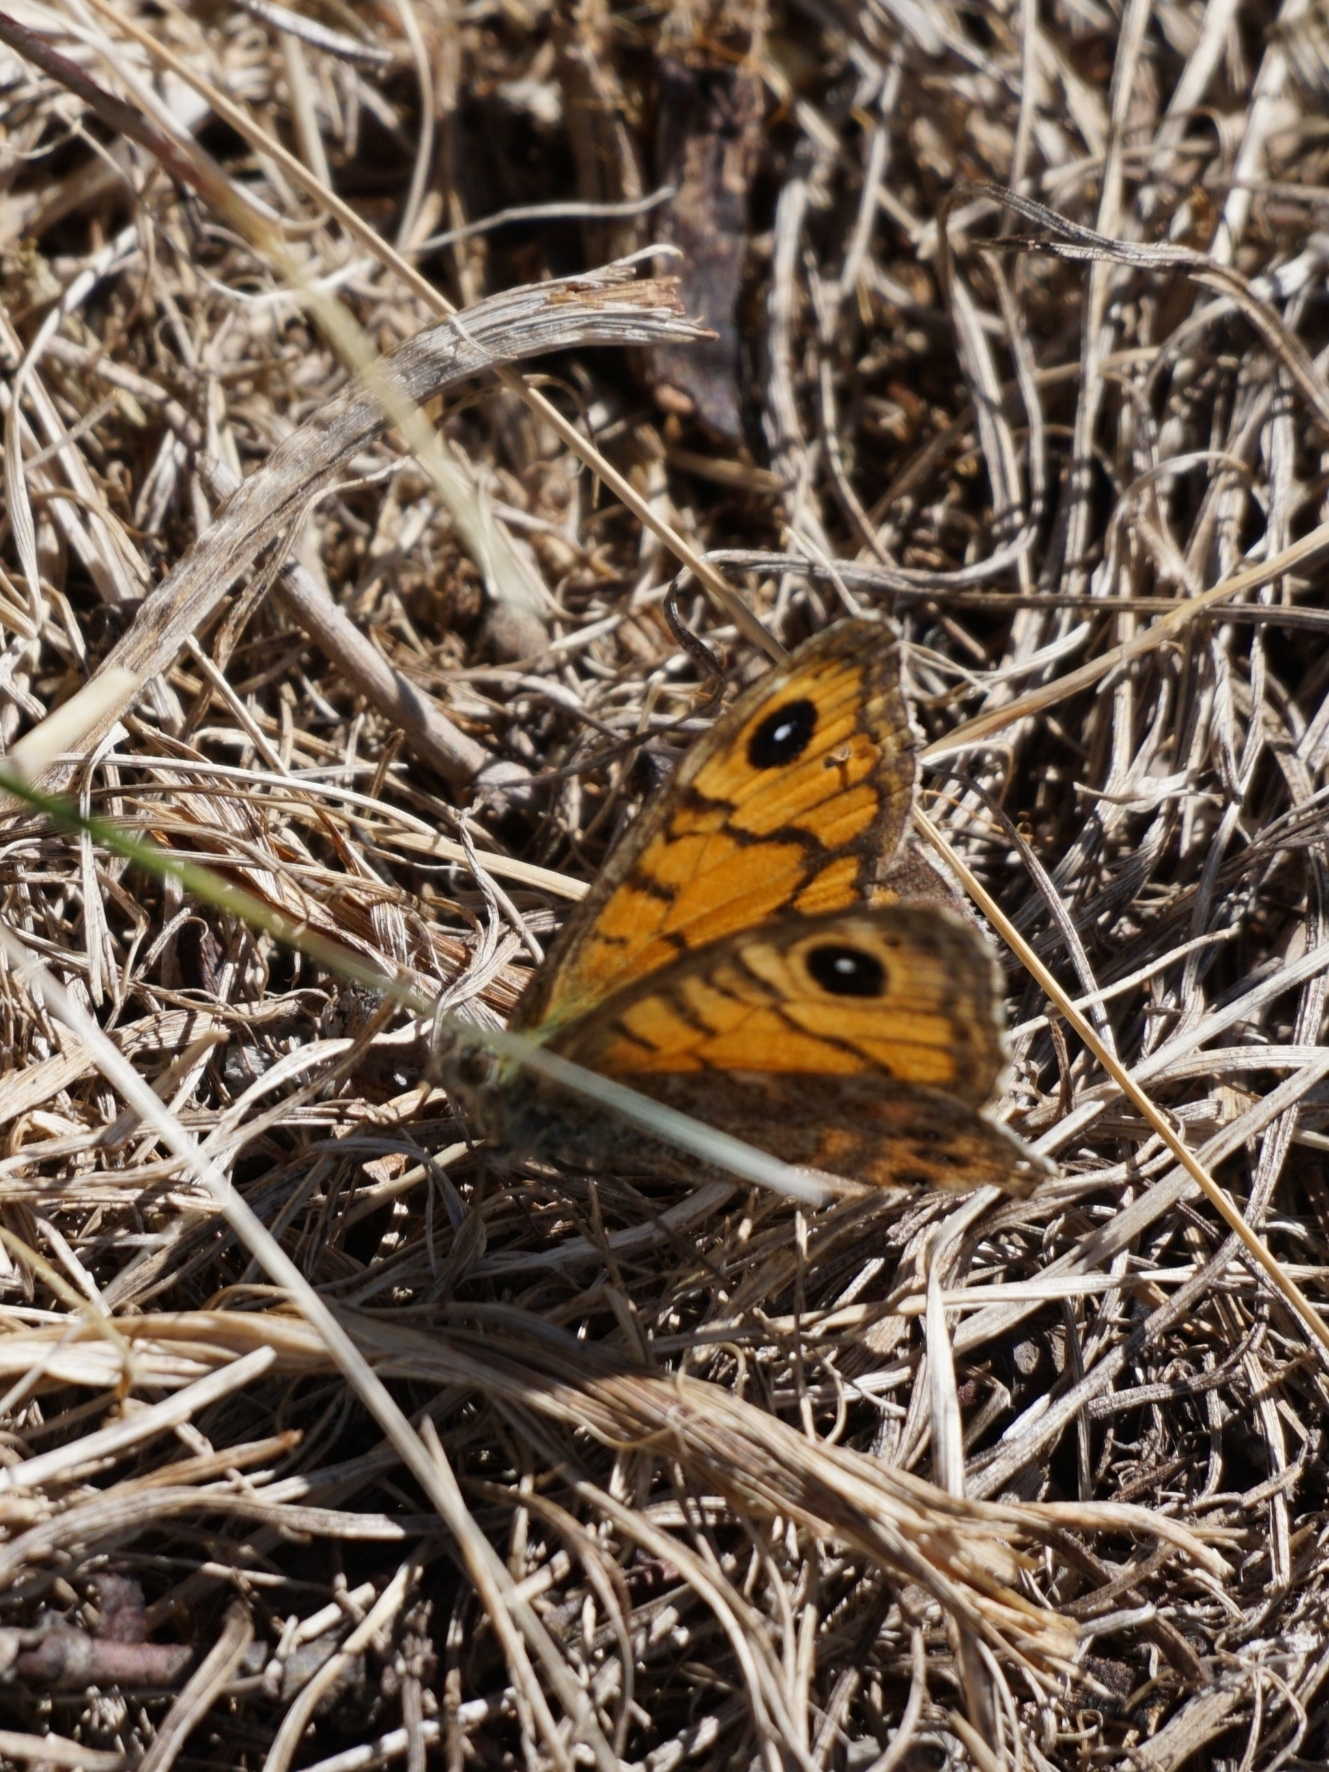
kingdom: Animalia
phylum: Arthropoda
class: Insecta
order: Lepidoptera
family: Nymphalidae
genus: Pararge
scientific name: Pararge Lasiommata megera
